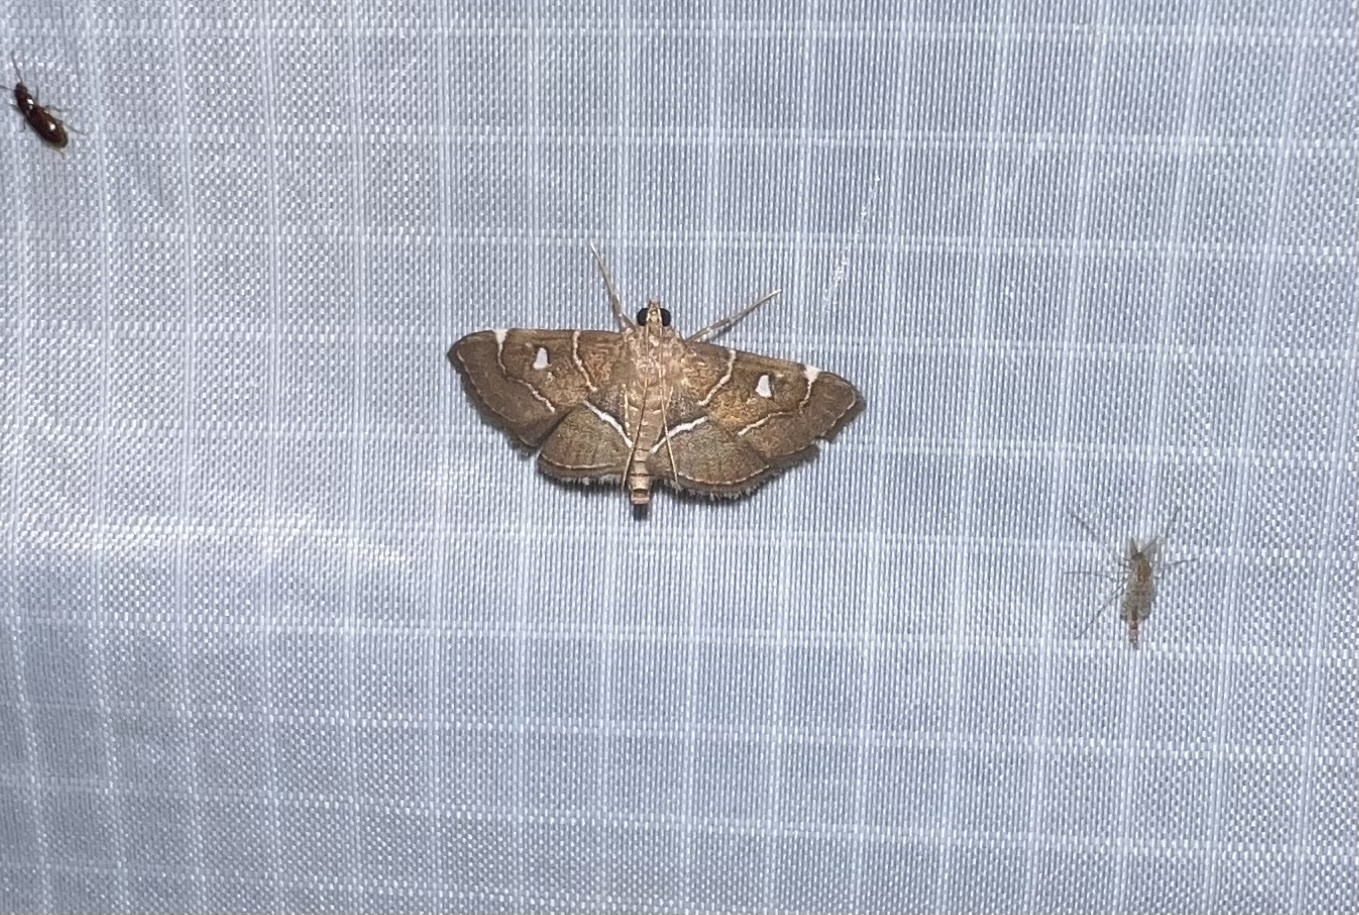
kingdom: Animalia
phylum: Arthropoda
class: Insecta
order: Lepidoptera
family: Crambidae
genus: Lamprosema
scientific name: Lamprosema victoriae
